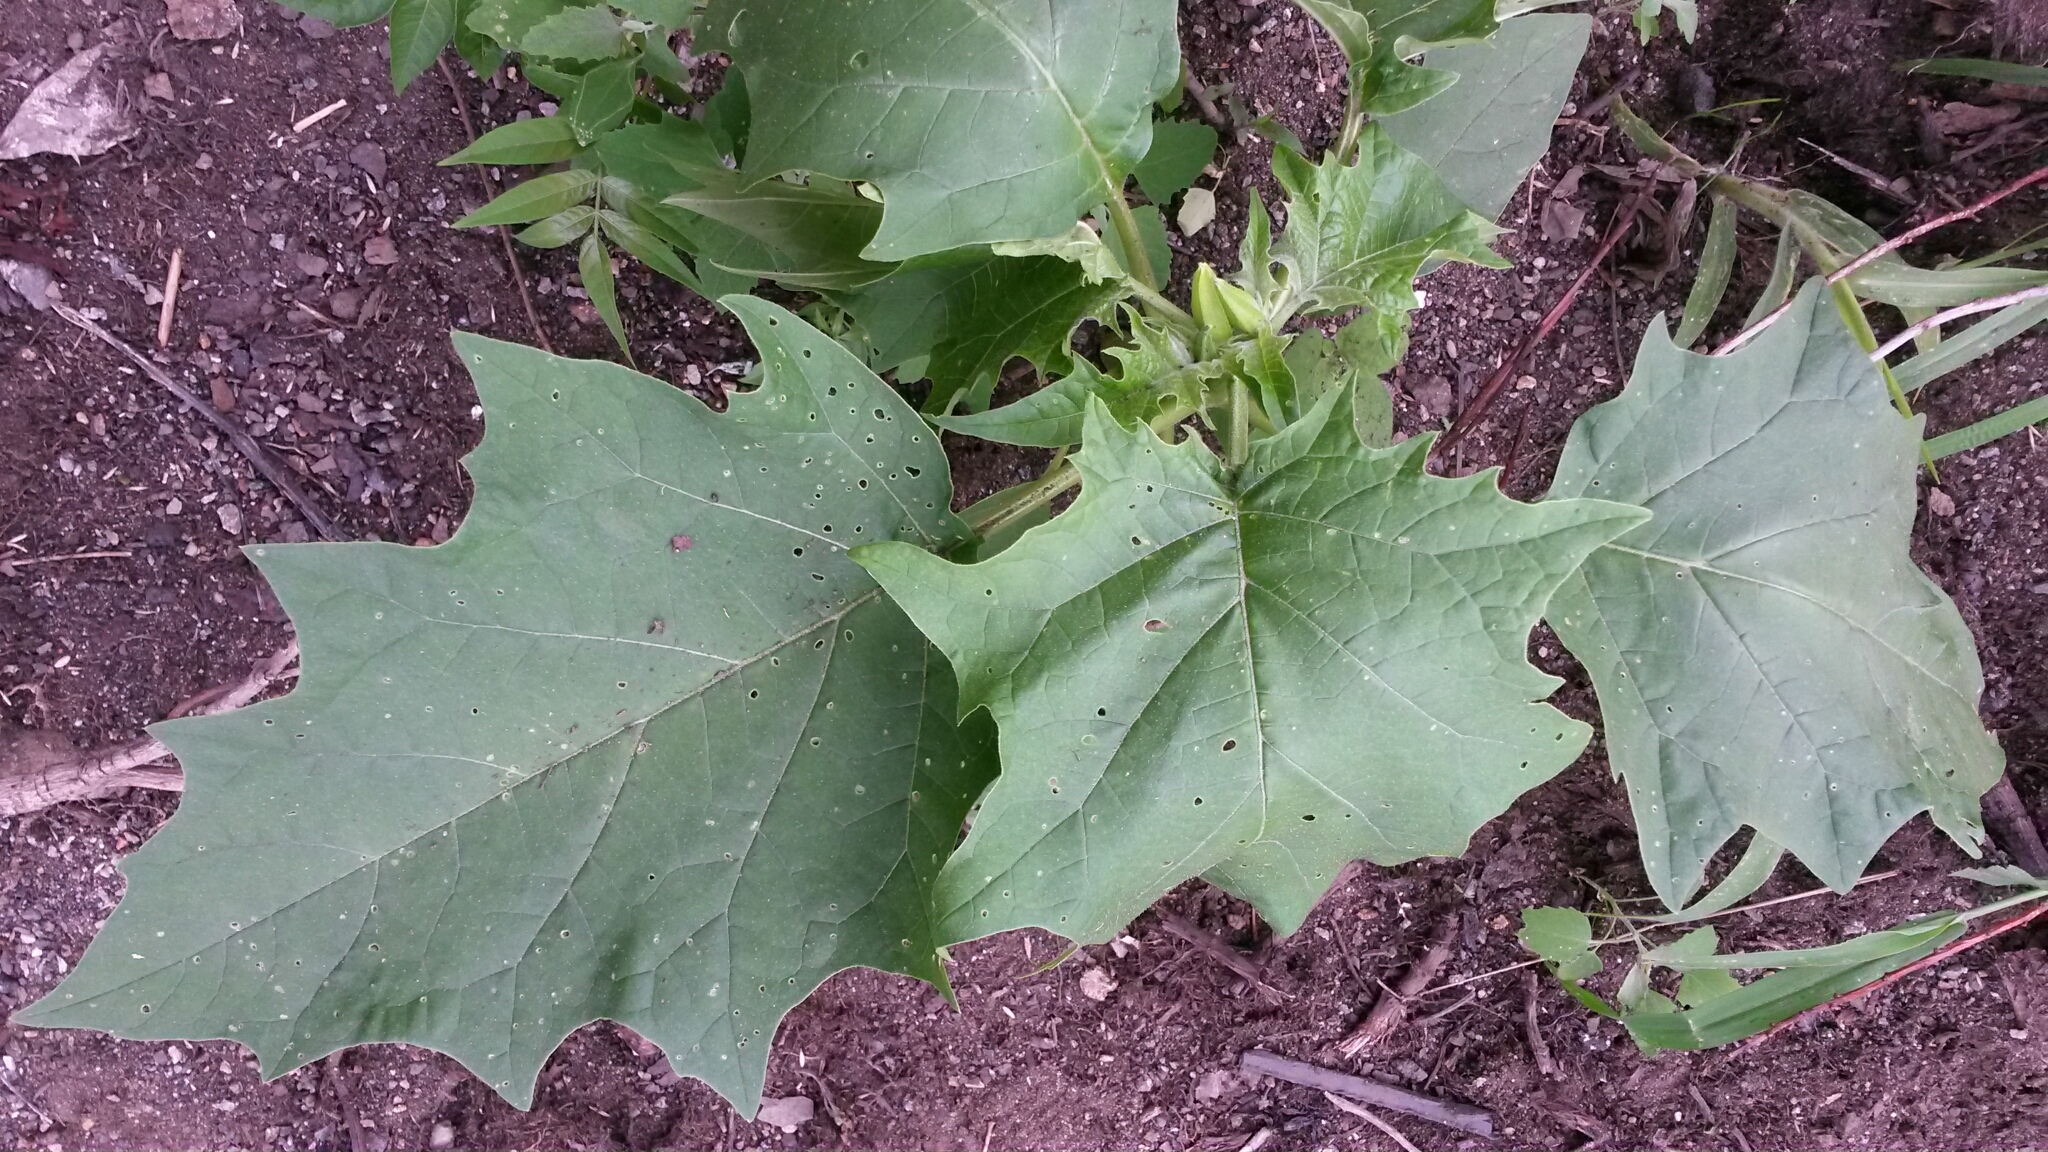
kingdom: Plantae
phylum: Tracheophyta
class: Magnoliopsida
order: Solanales
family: Solanaceae
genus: Datura
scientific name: Datura stramonium
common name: Thorn-apple
